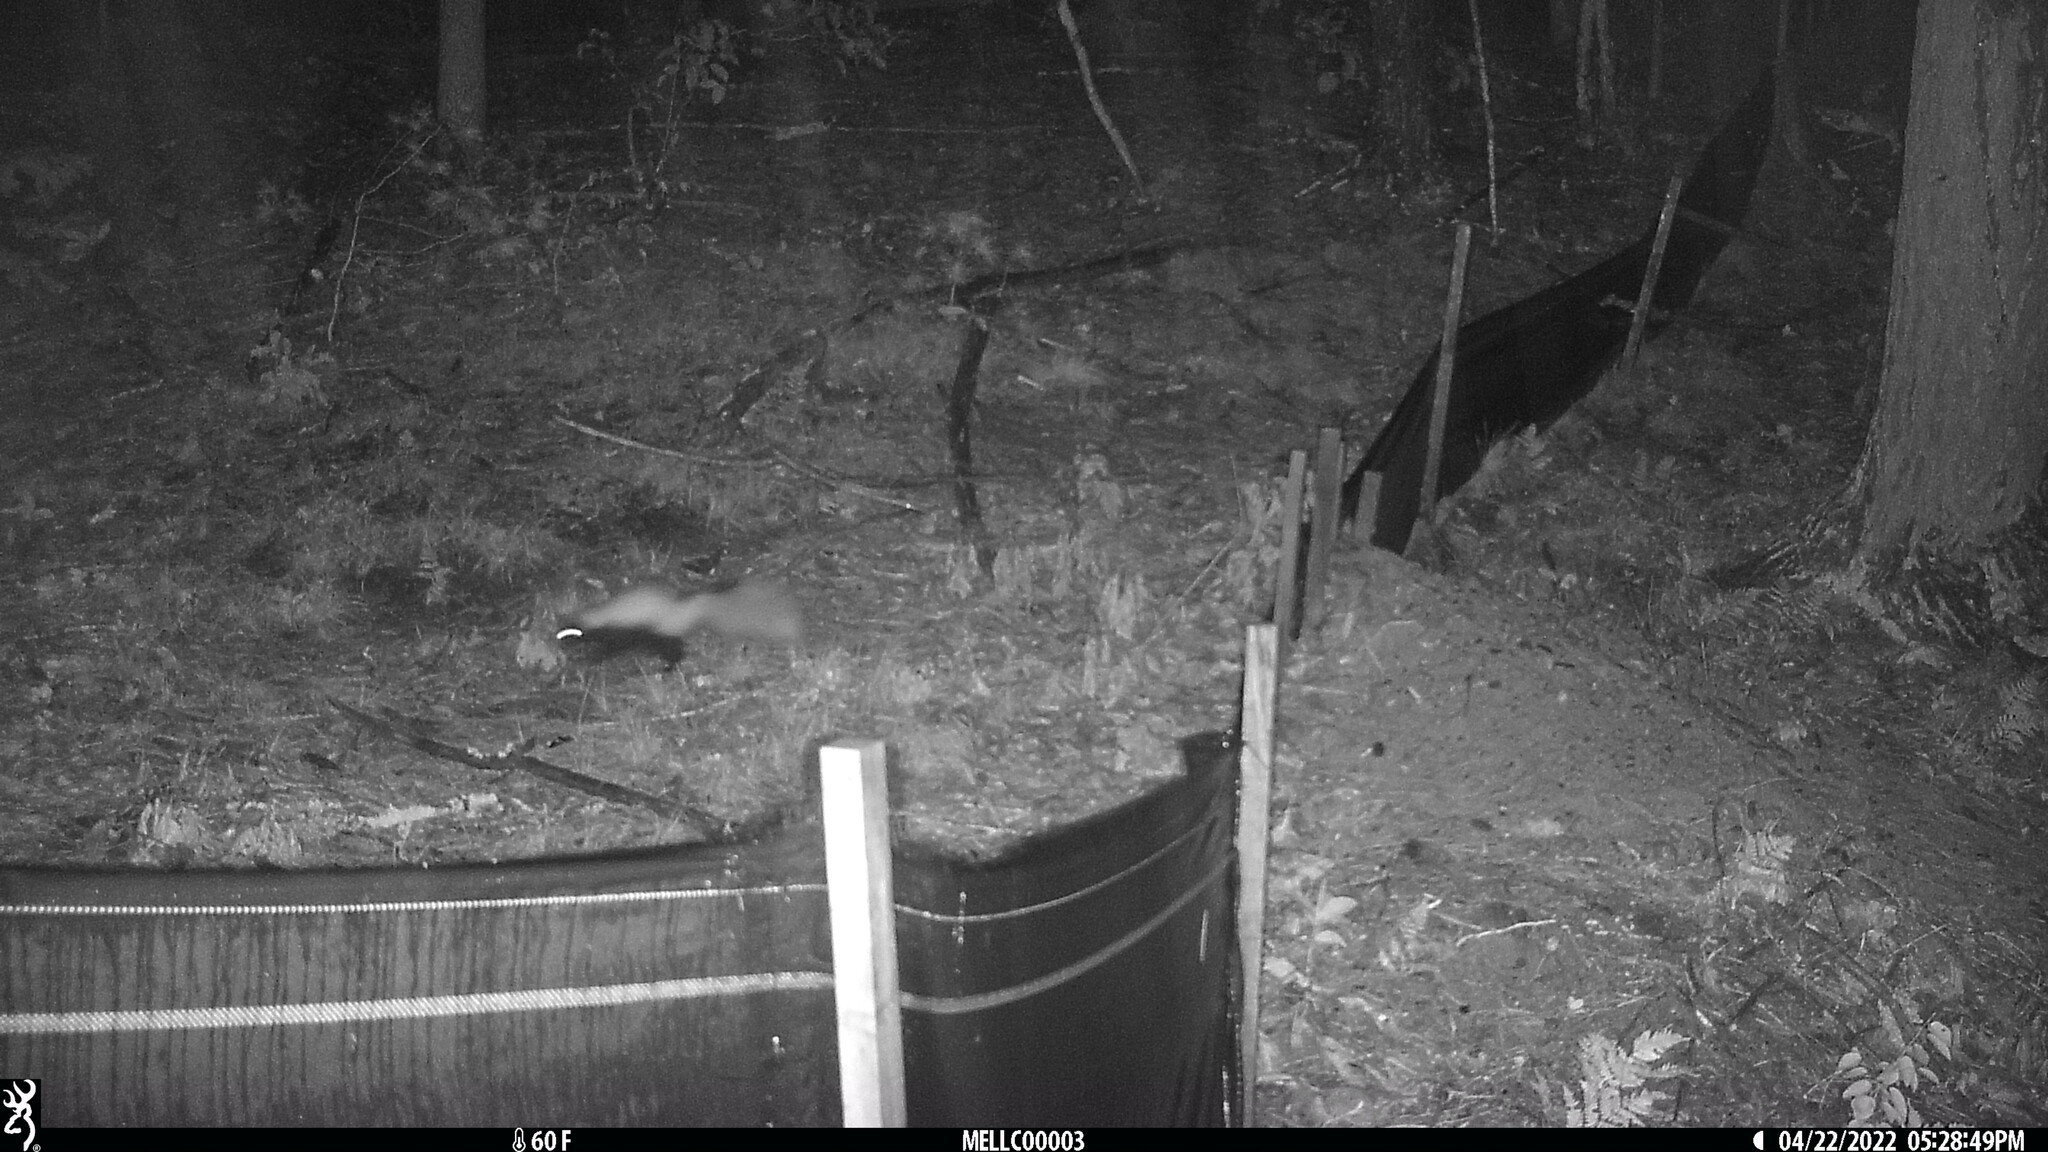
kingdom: Animalia
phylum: Chordata
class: Mammalia
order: Carnivora
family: Mephitidae
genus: Mephitis
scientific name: Mephitis mephitis
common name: Striped skunk
